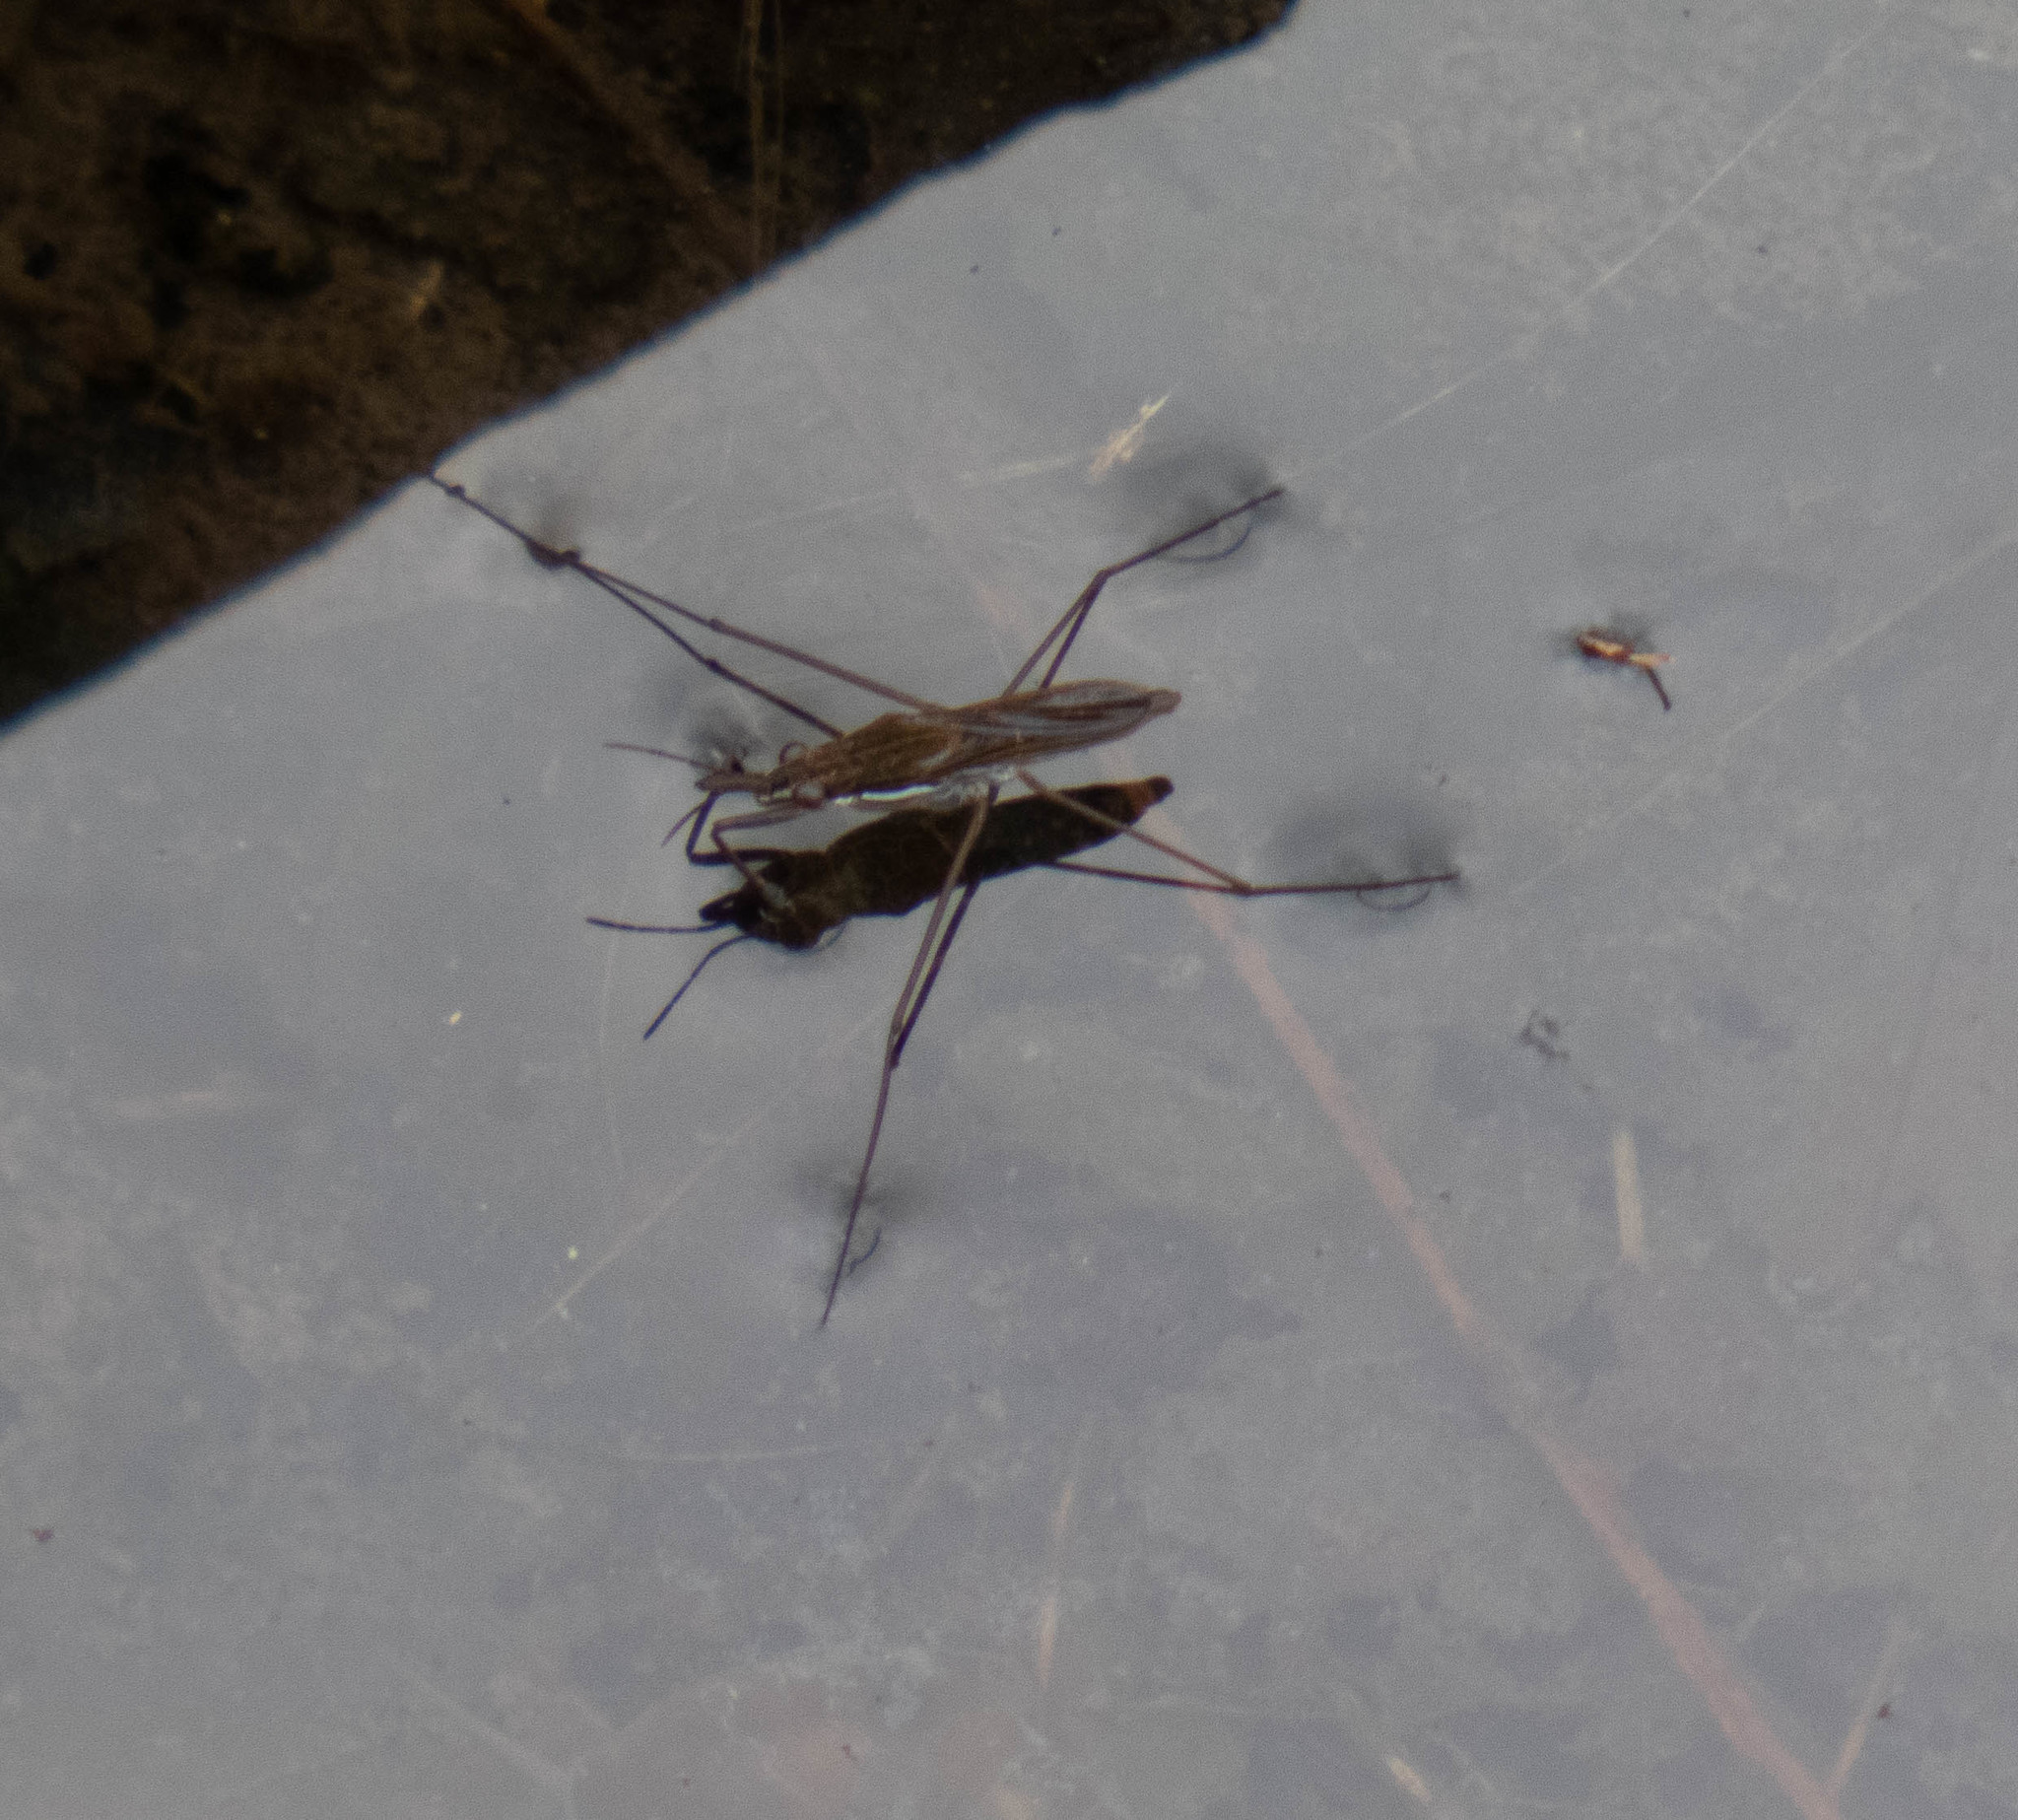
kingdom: Animalia
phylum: Arthropoda
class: Insecta
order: Hemiptera
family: Gerridae
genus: Gerris
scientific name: Gerris
